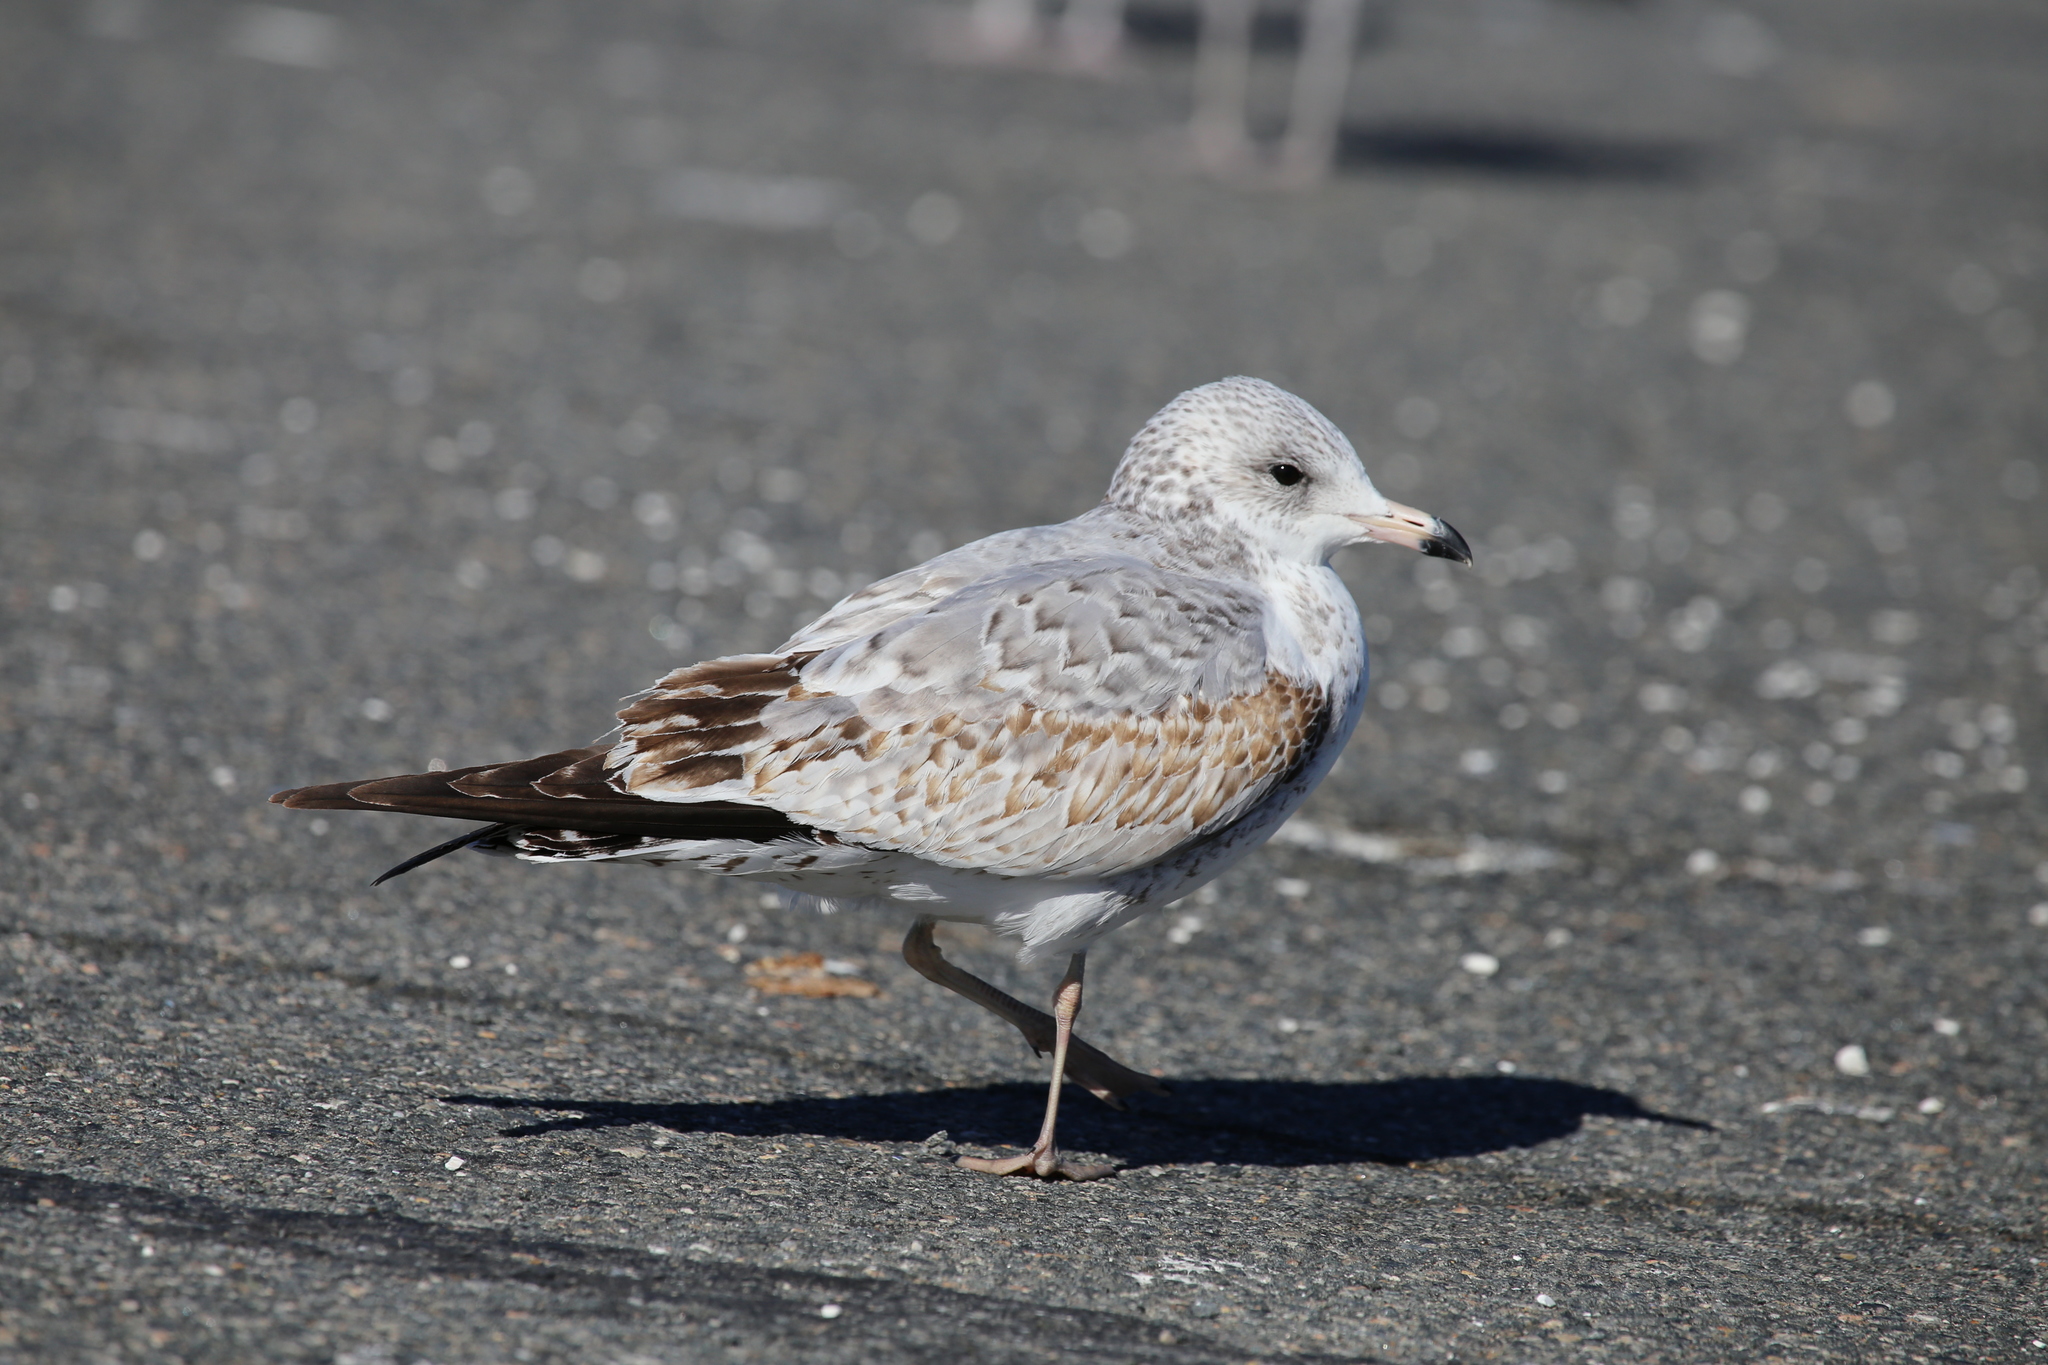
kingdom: Animalia
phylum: Chordata
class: Aves
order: Charadriiformes
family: Laridae
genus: Larus
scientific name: Larus delawarensis
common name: Ring-billed gull
